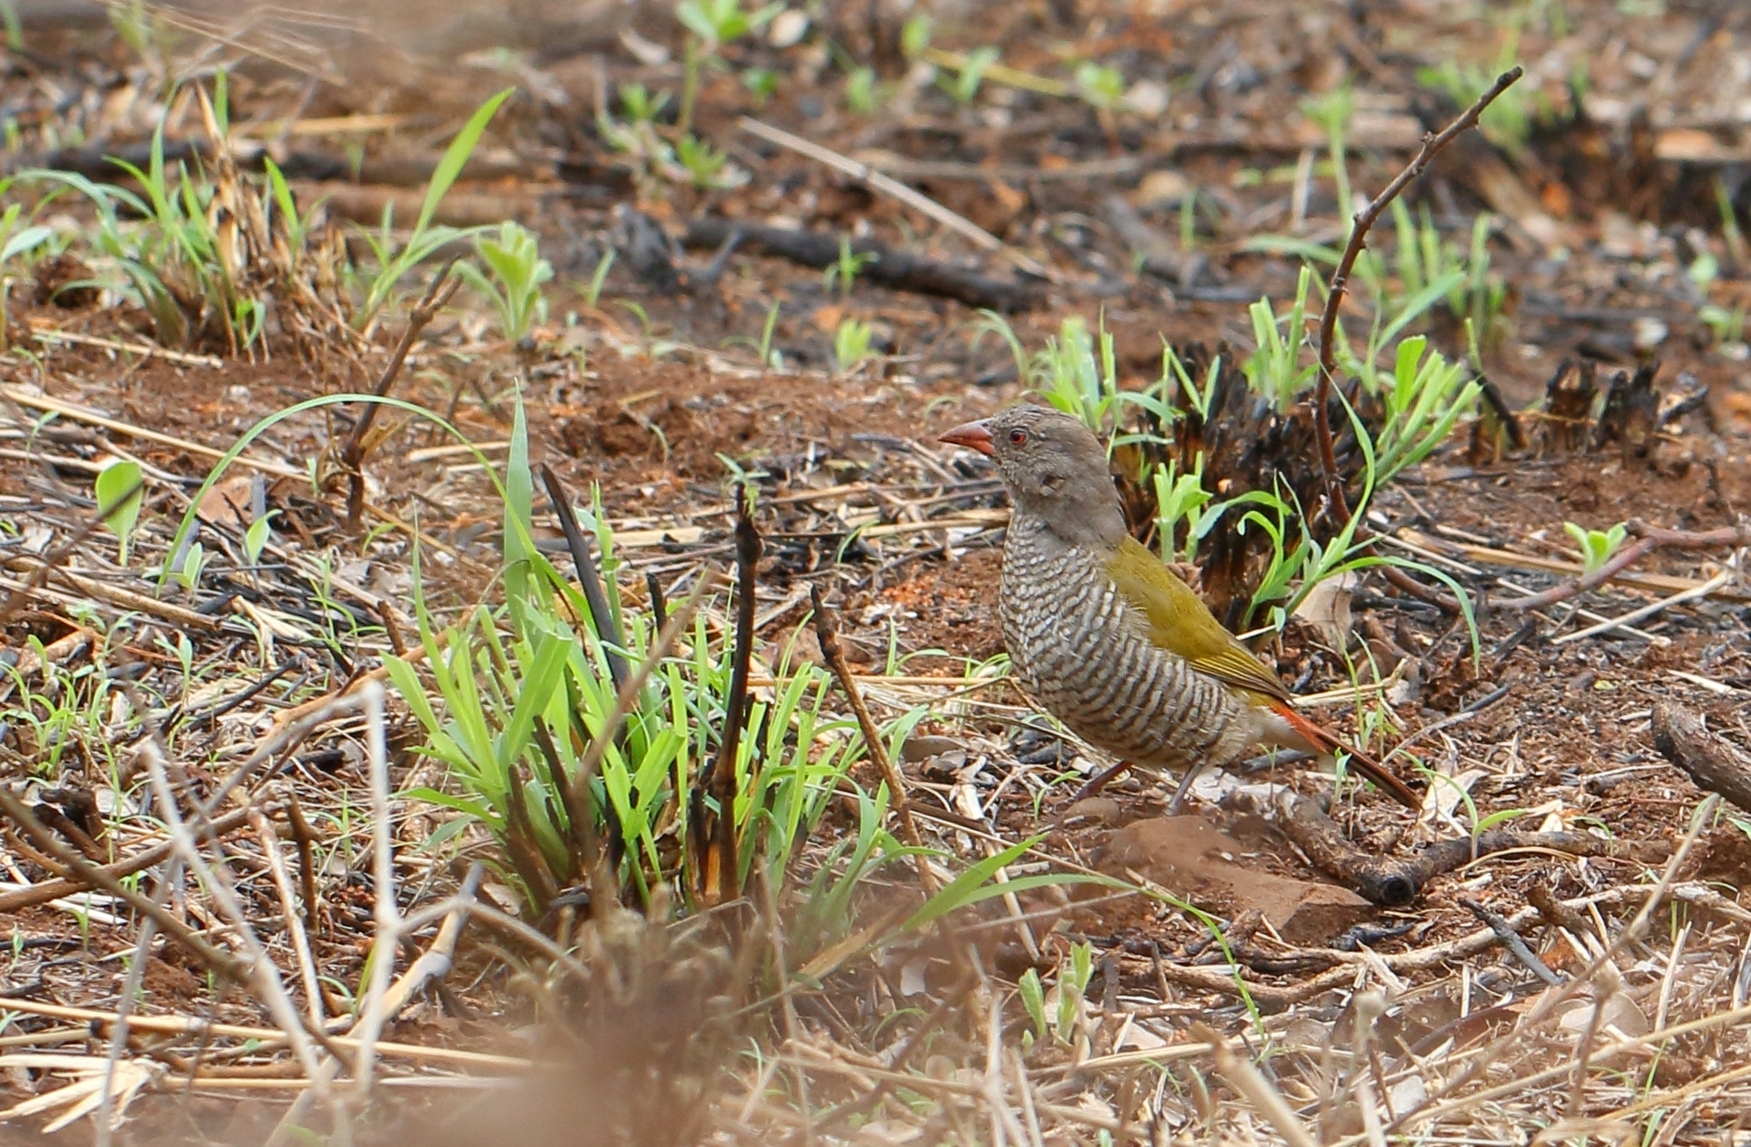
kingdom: Animalia
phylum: Chordata
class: Aves
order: Passeriformes
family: Estrildidae
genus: Pytilia
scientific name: Pytilia melba
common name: Green-winged pytilia
